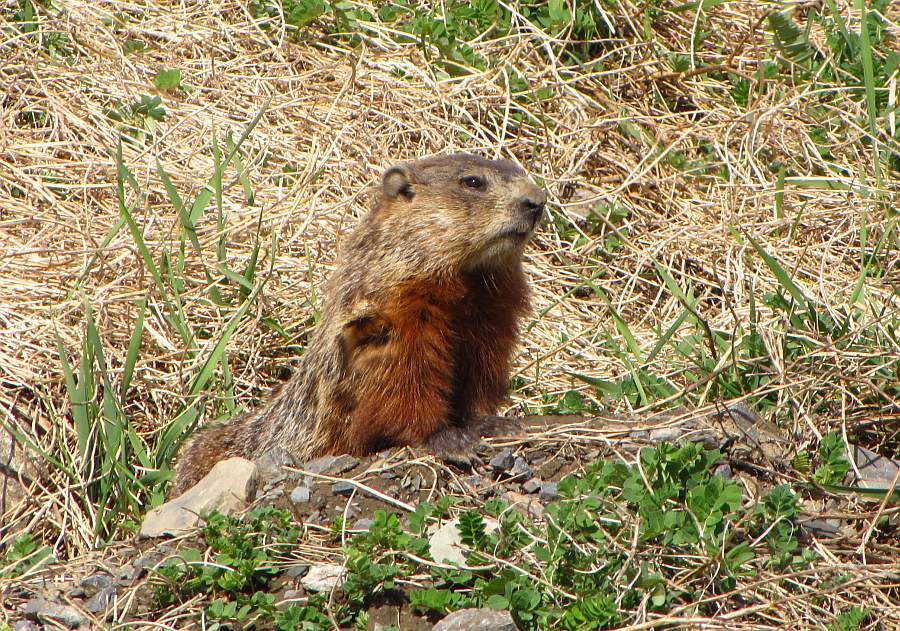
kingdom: Animalia
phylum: Chordata
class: Mammalia
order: Rodentia
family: Sciuridae
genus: Marmota
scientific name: Marmota monax
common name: Groundhog
